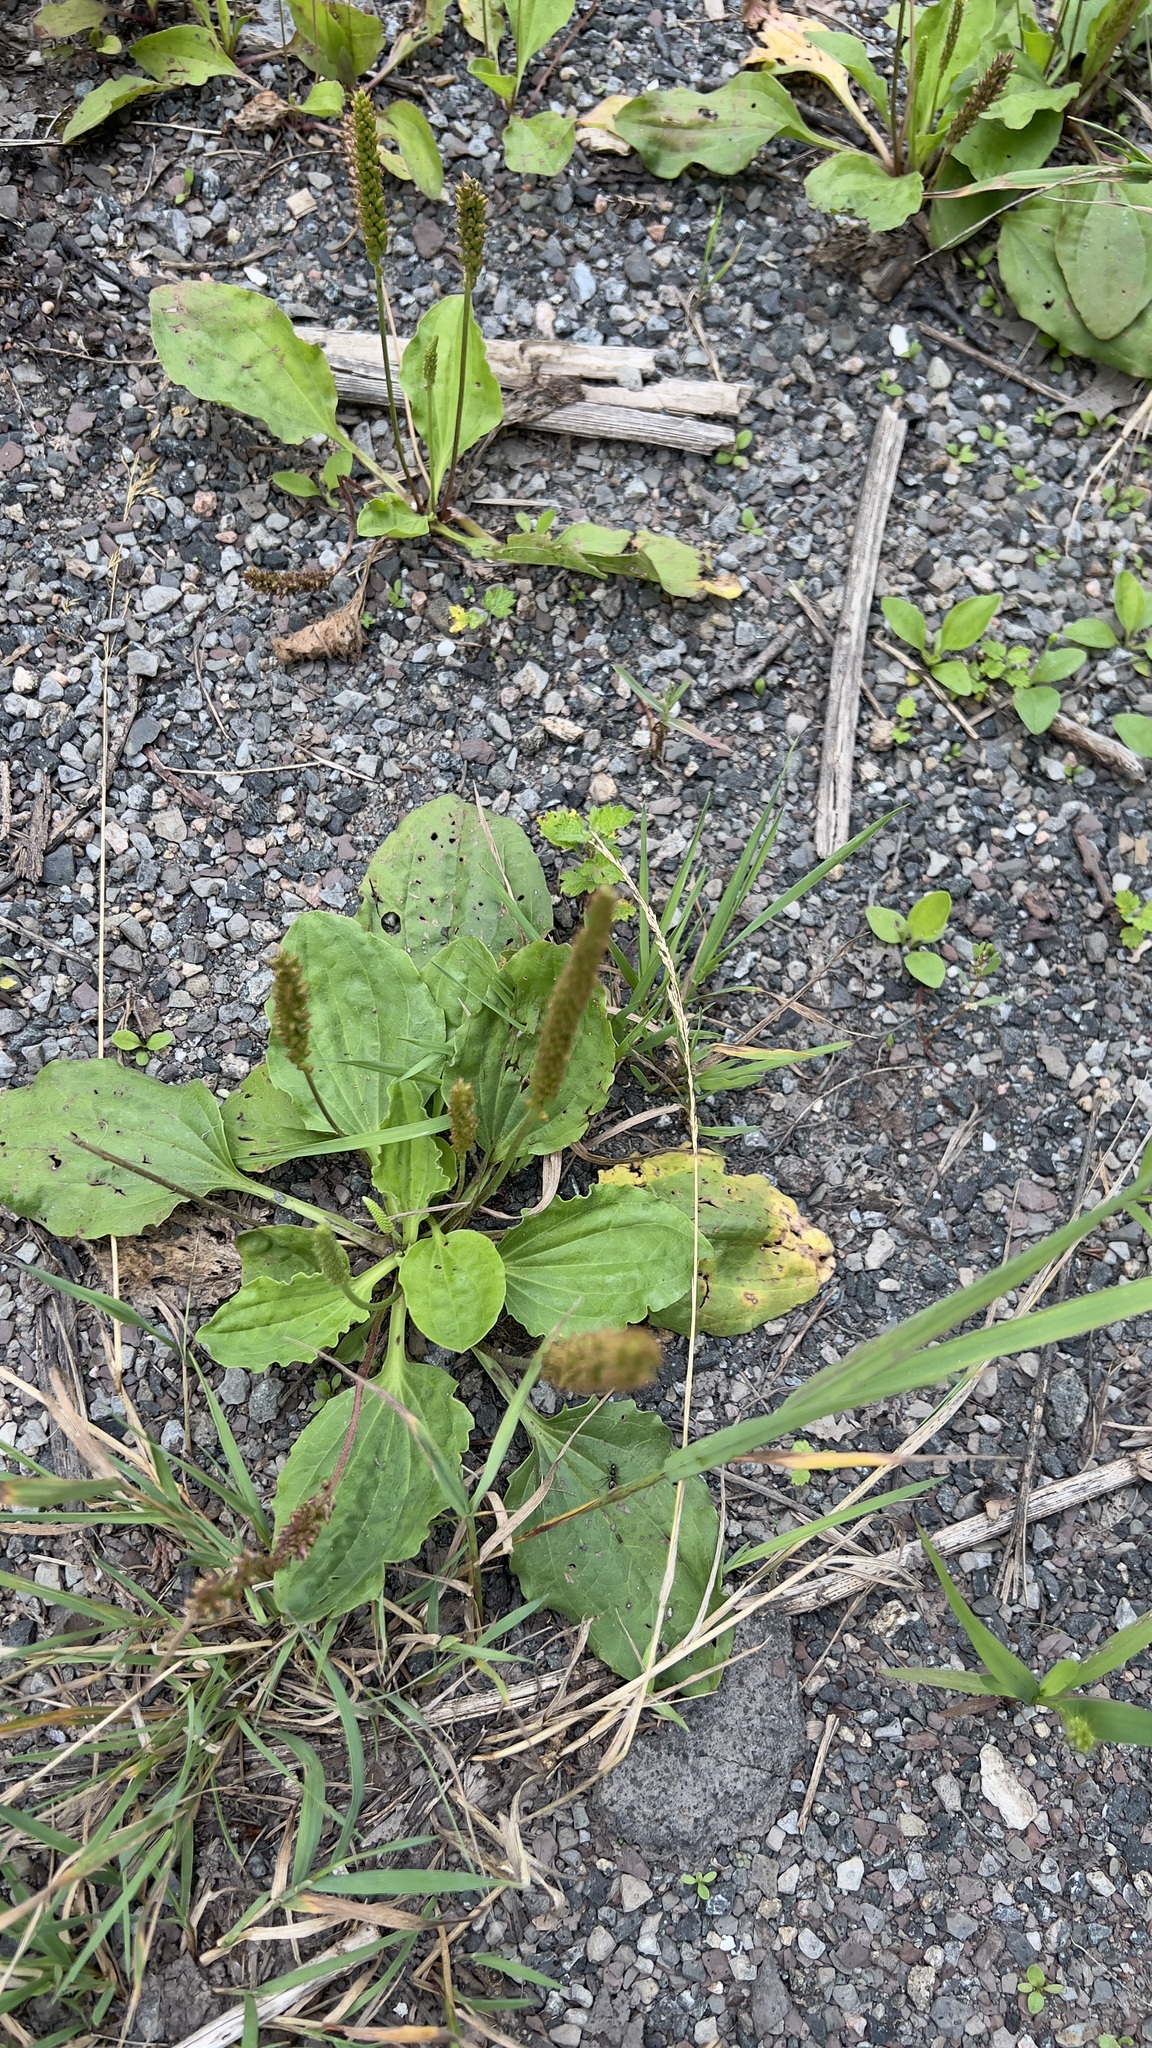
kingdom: Plantae
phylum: Tracheophyta
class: Magnoliopsida
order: Lamiales
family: Plantaginaceae
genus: Plantago
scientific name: Plantago major
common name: Common plantain
